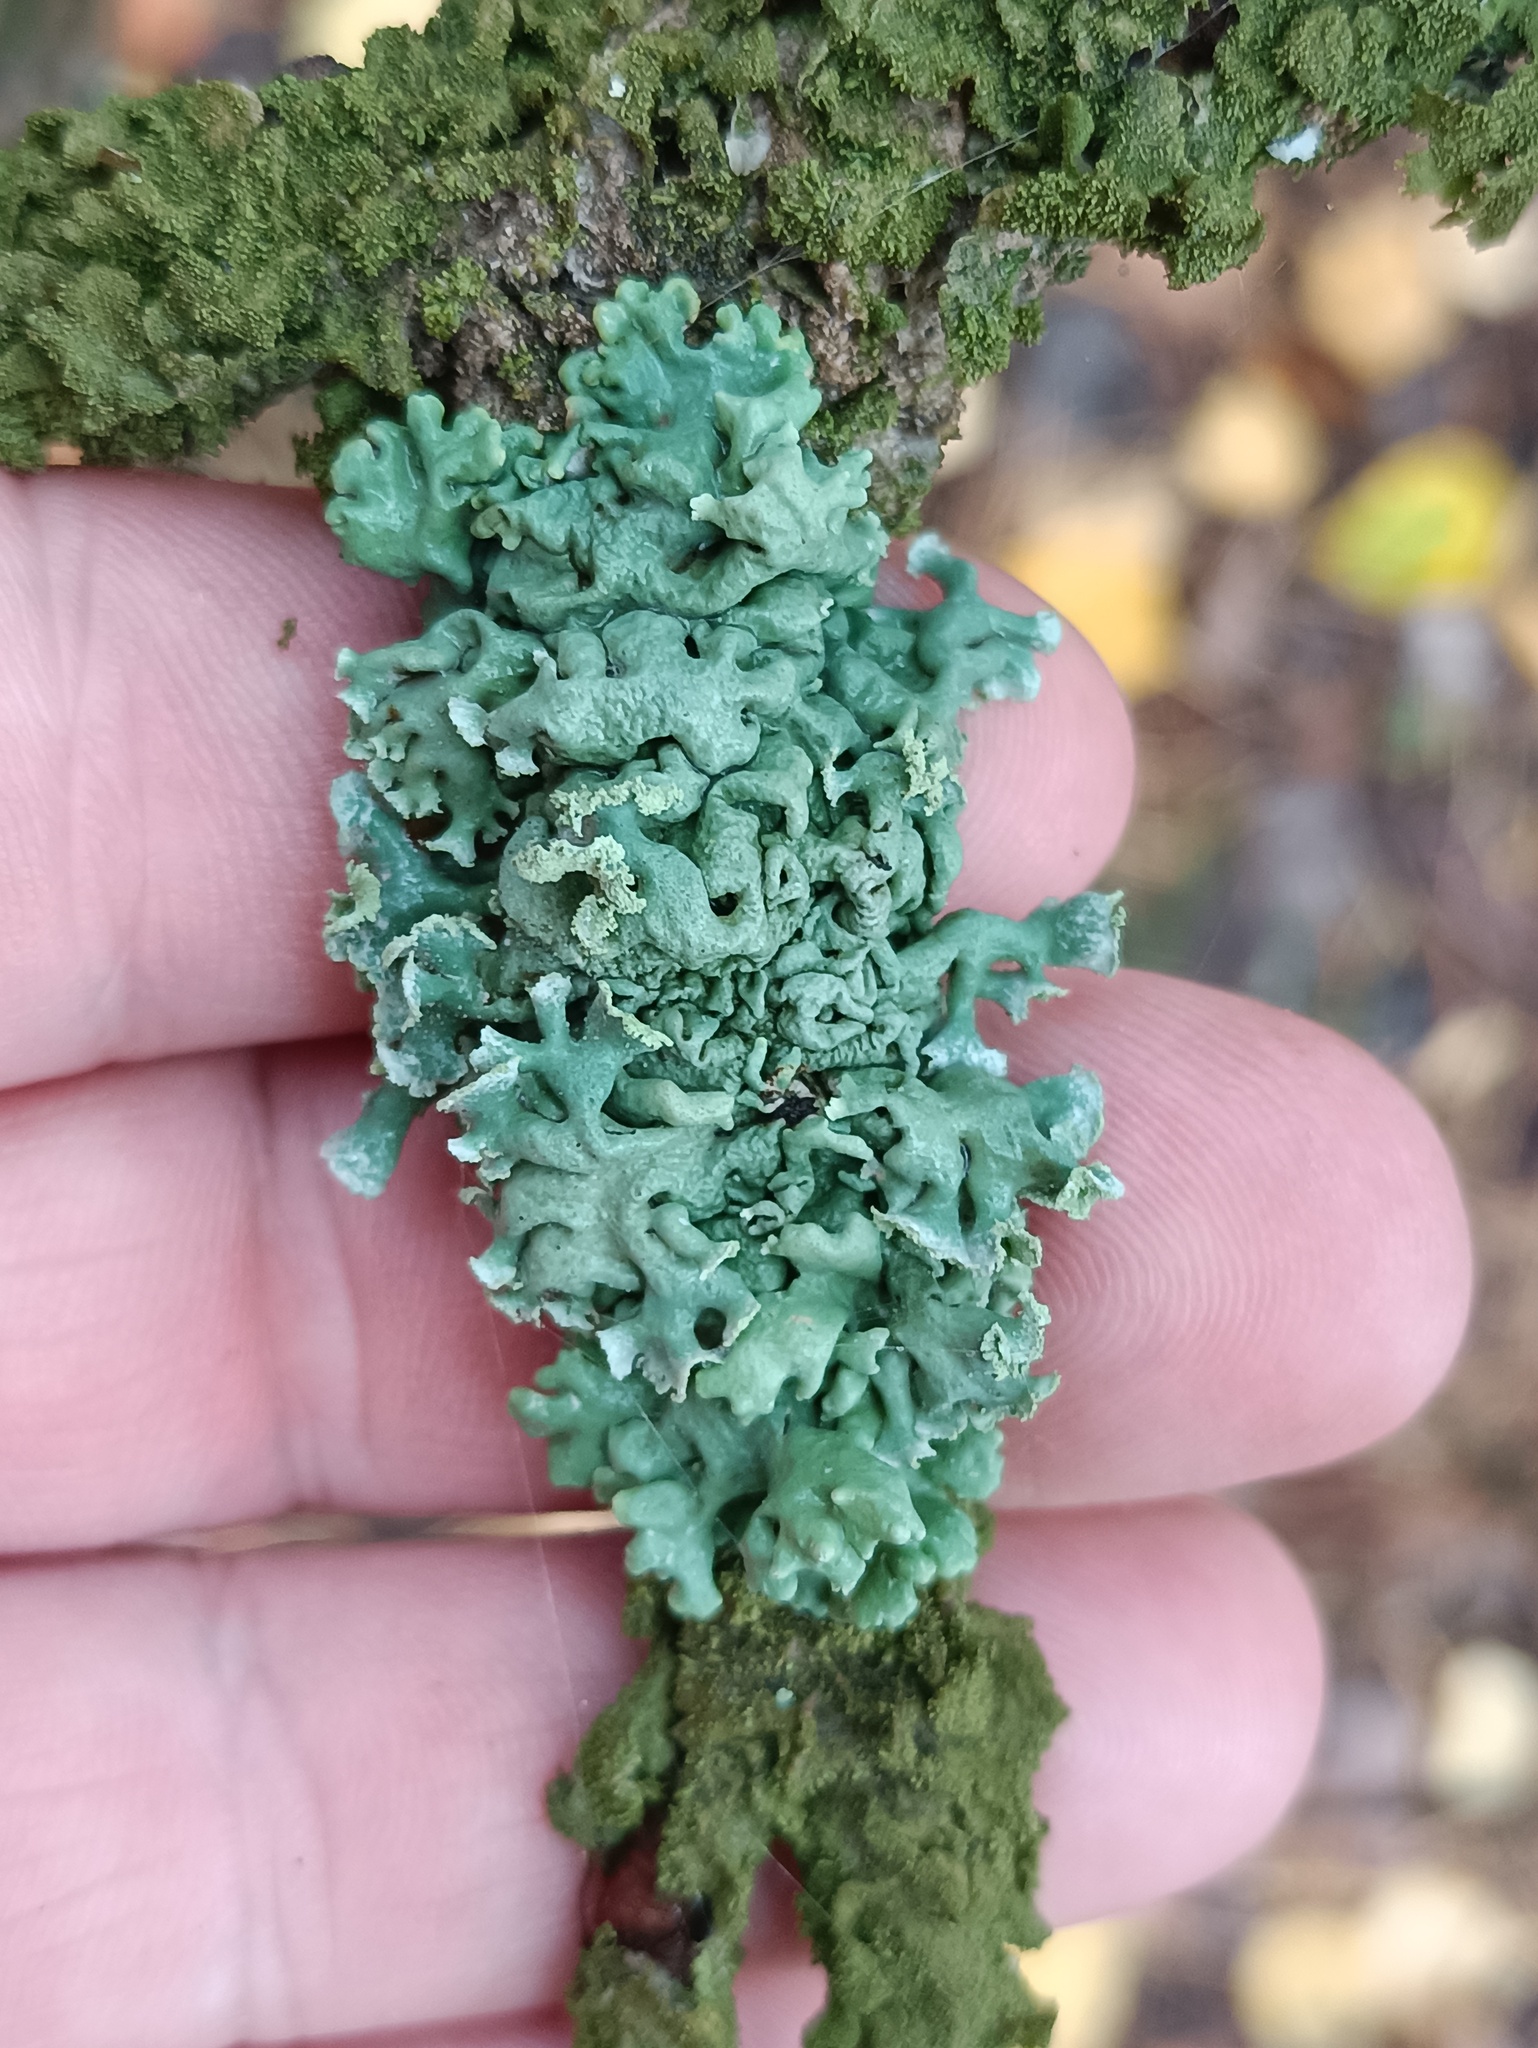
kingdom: Fungi
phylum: Ascomycota
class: Lecanoromycetes
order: Lecanorales
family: Parmeliaceae
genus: Hypogymnia
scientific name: Hypogymnia physodes
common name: Dark crottle
